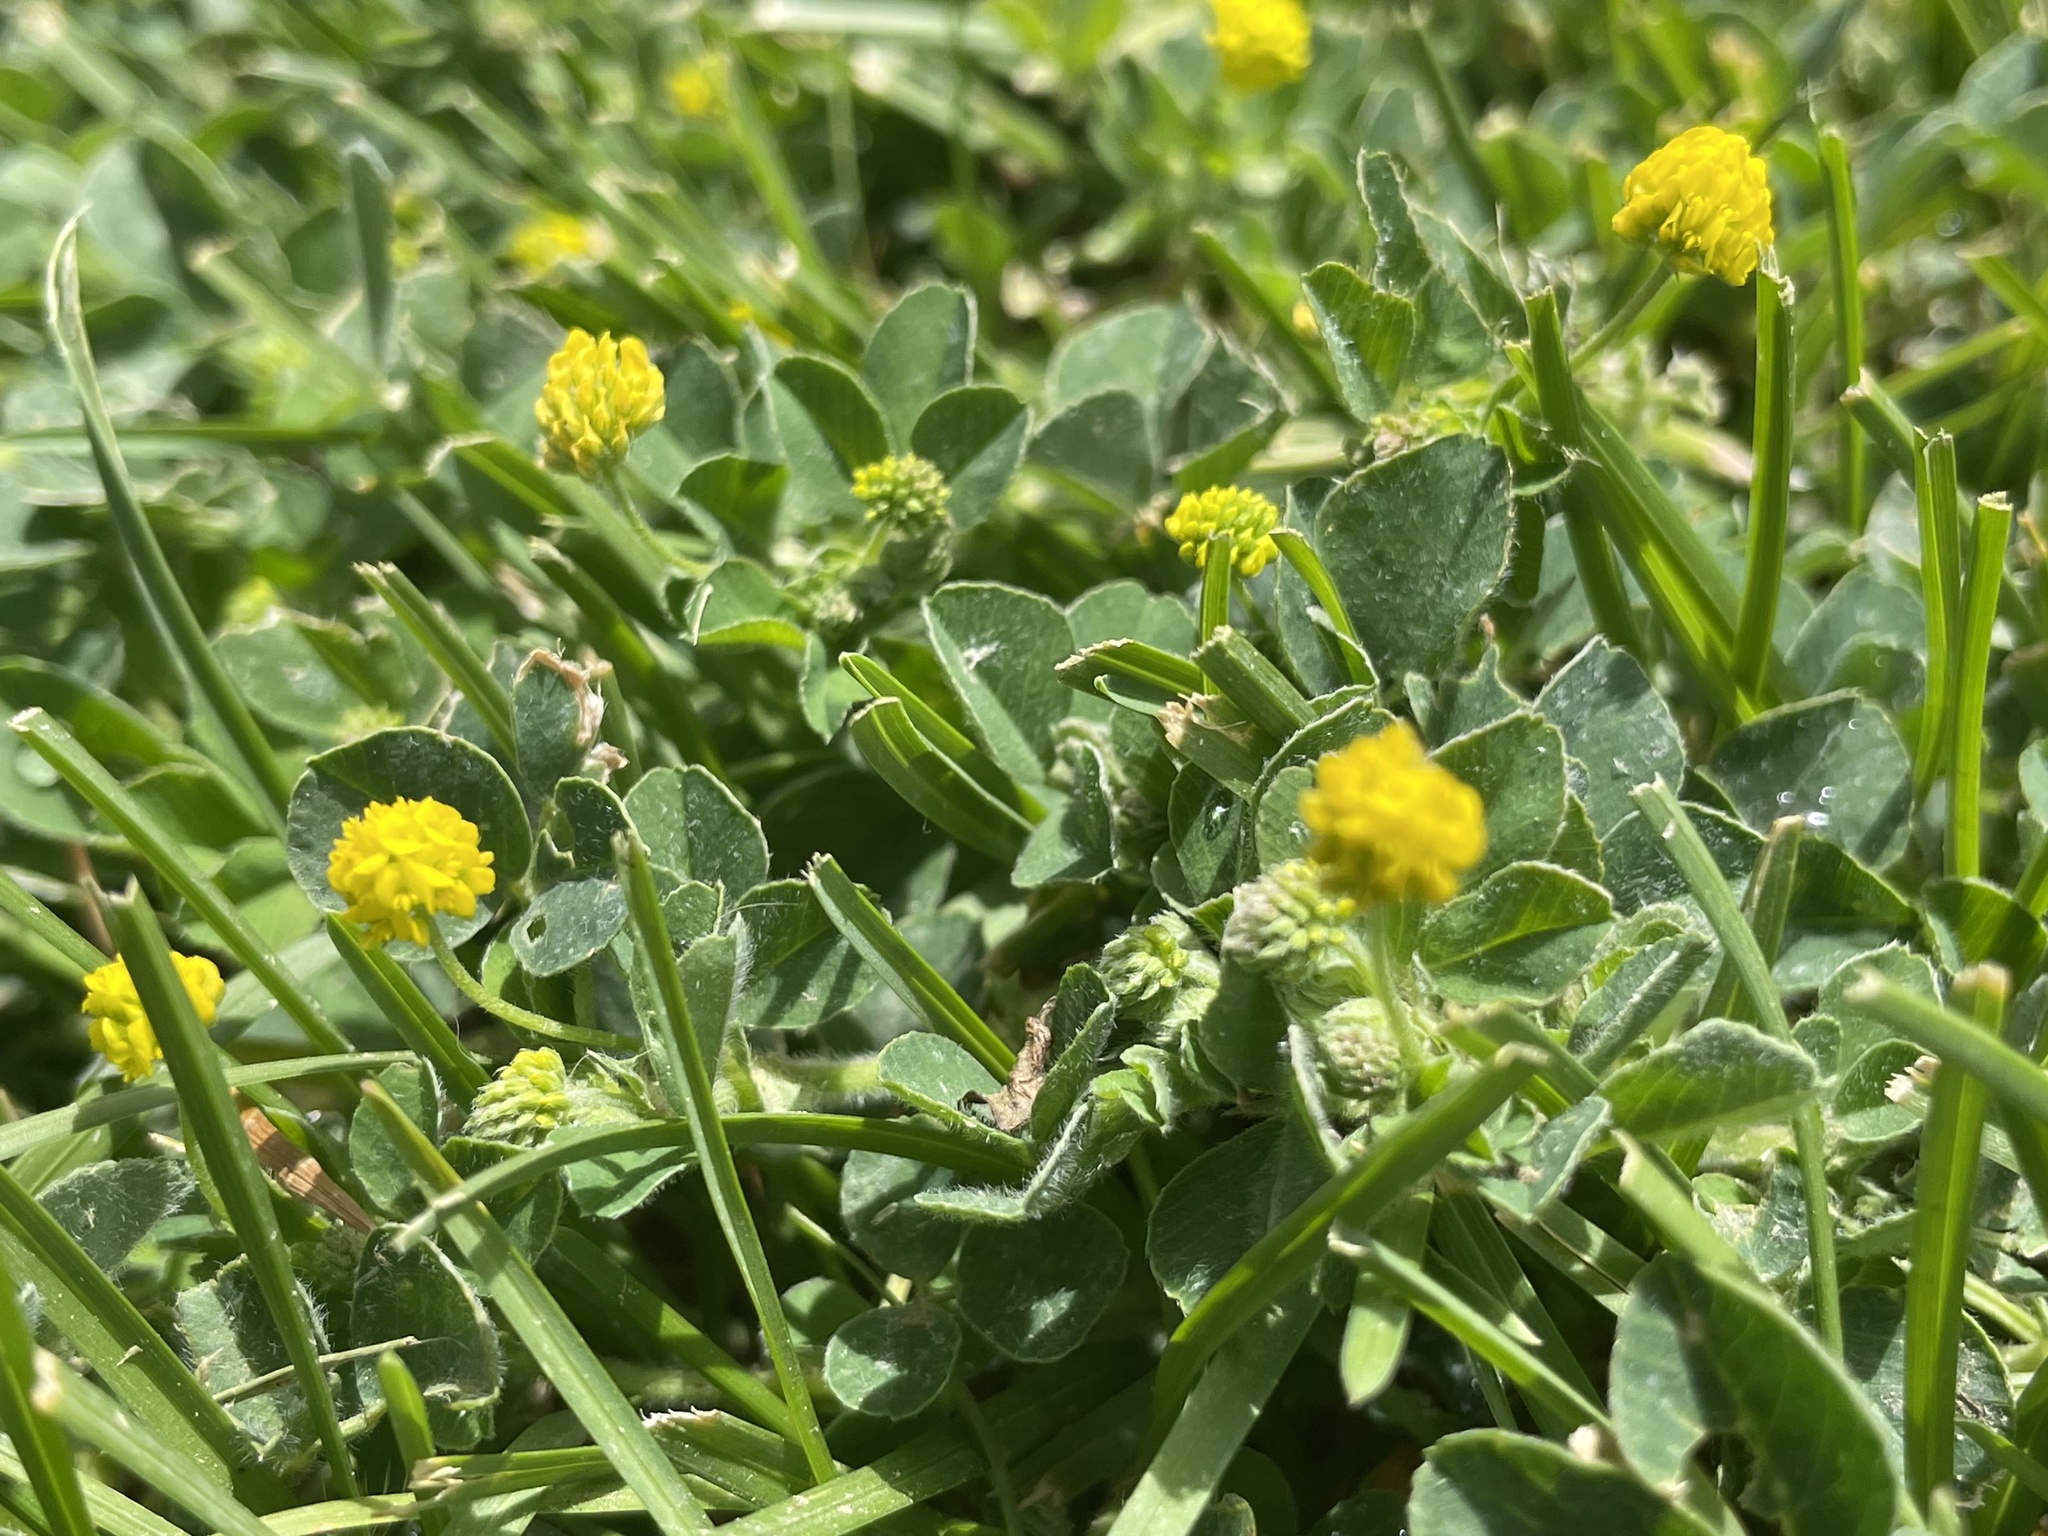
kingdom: Plantae
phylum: Tracheophyta
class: Magnoliopsida
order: Fabales
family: Fabaceae
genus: Medicago
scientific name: Medicago lupulina
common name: Black medick
